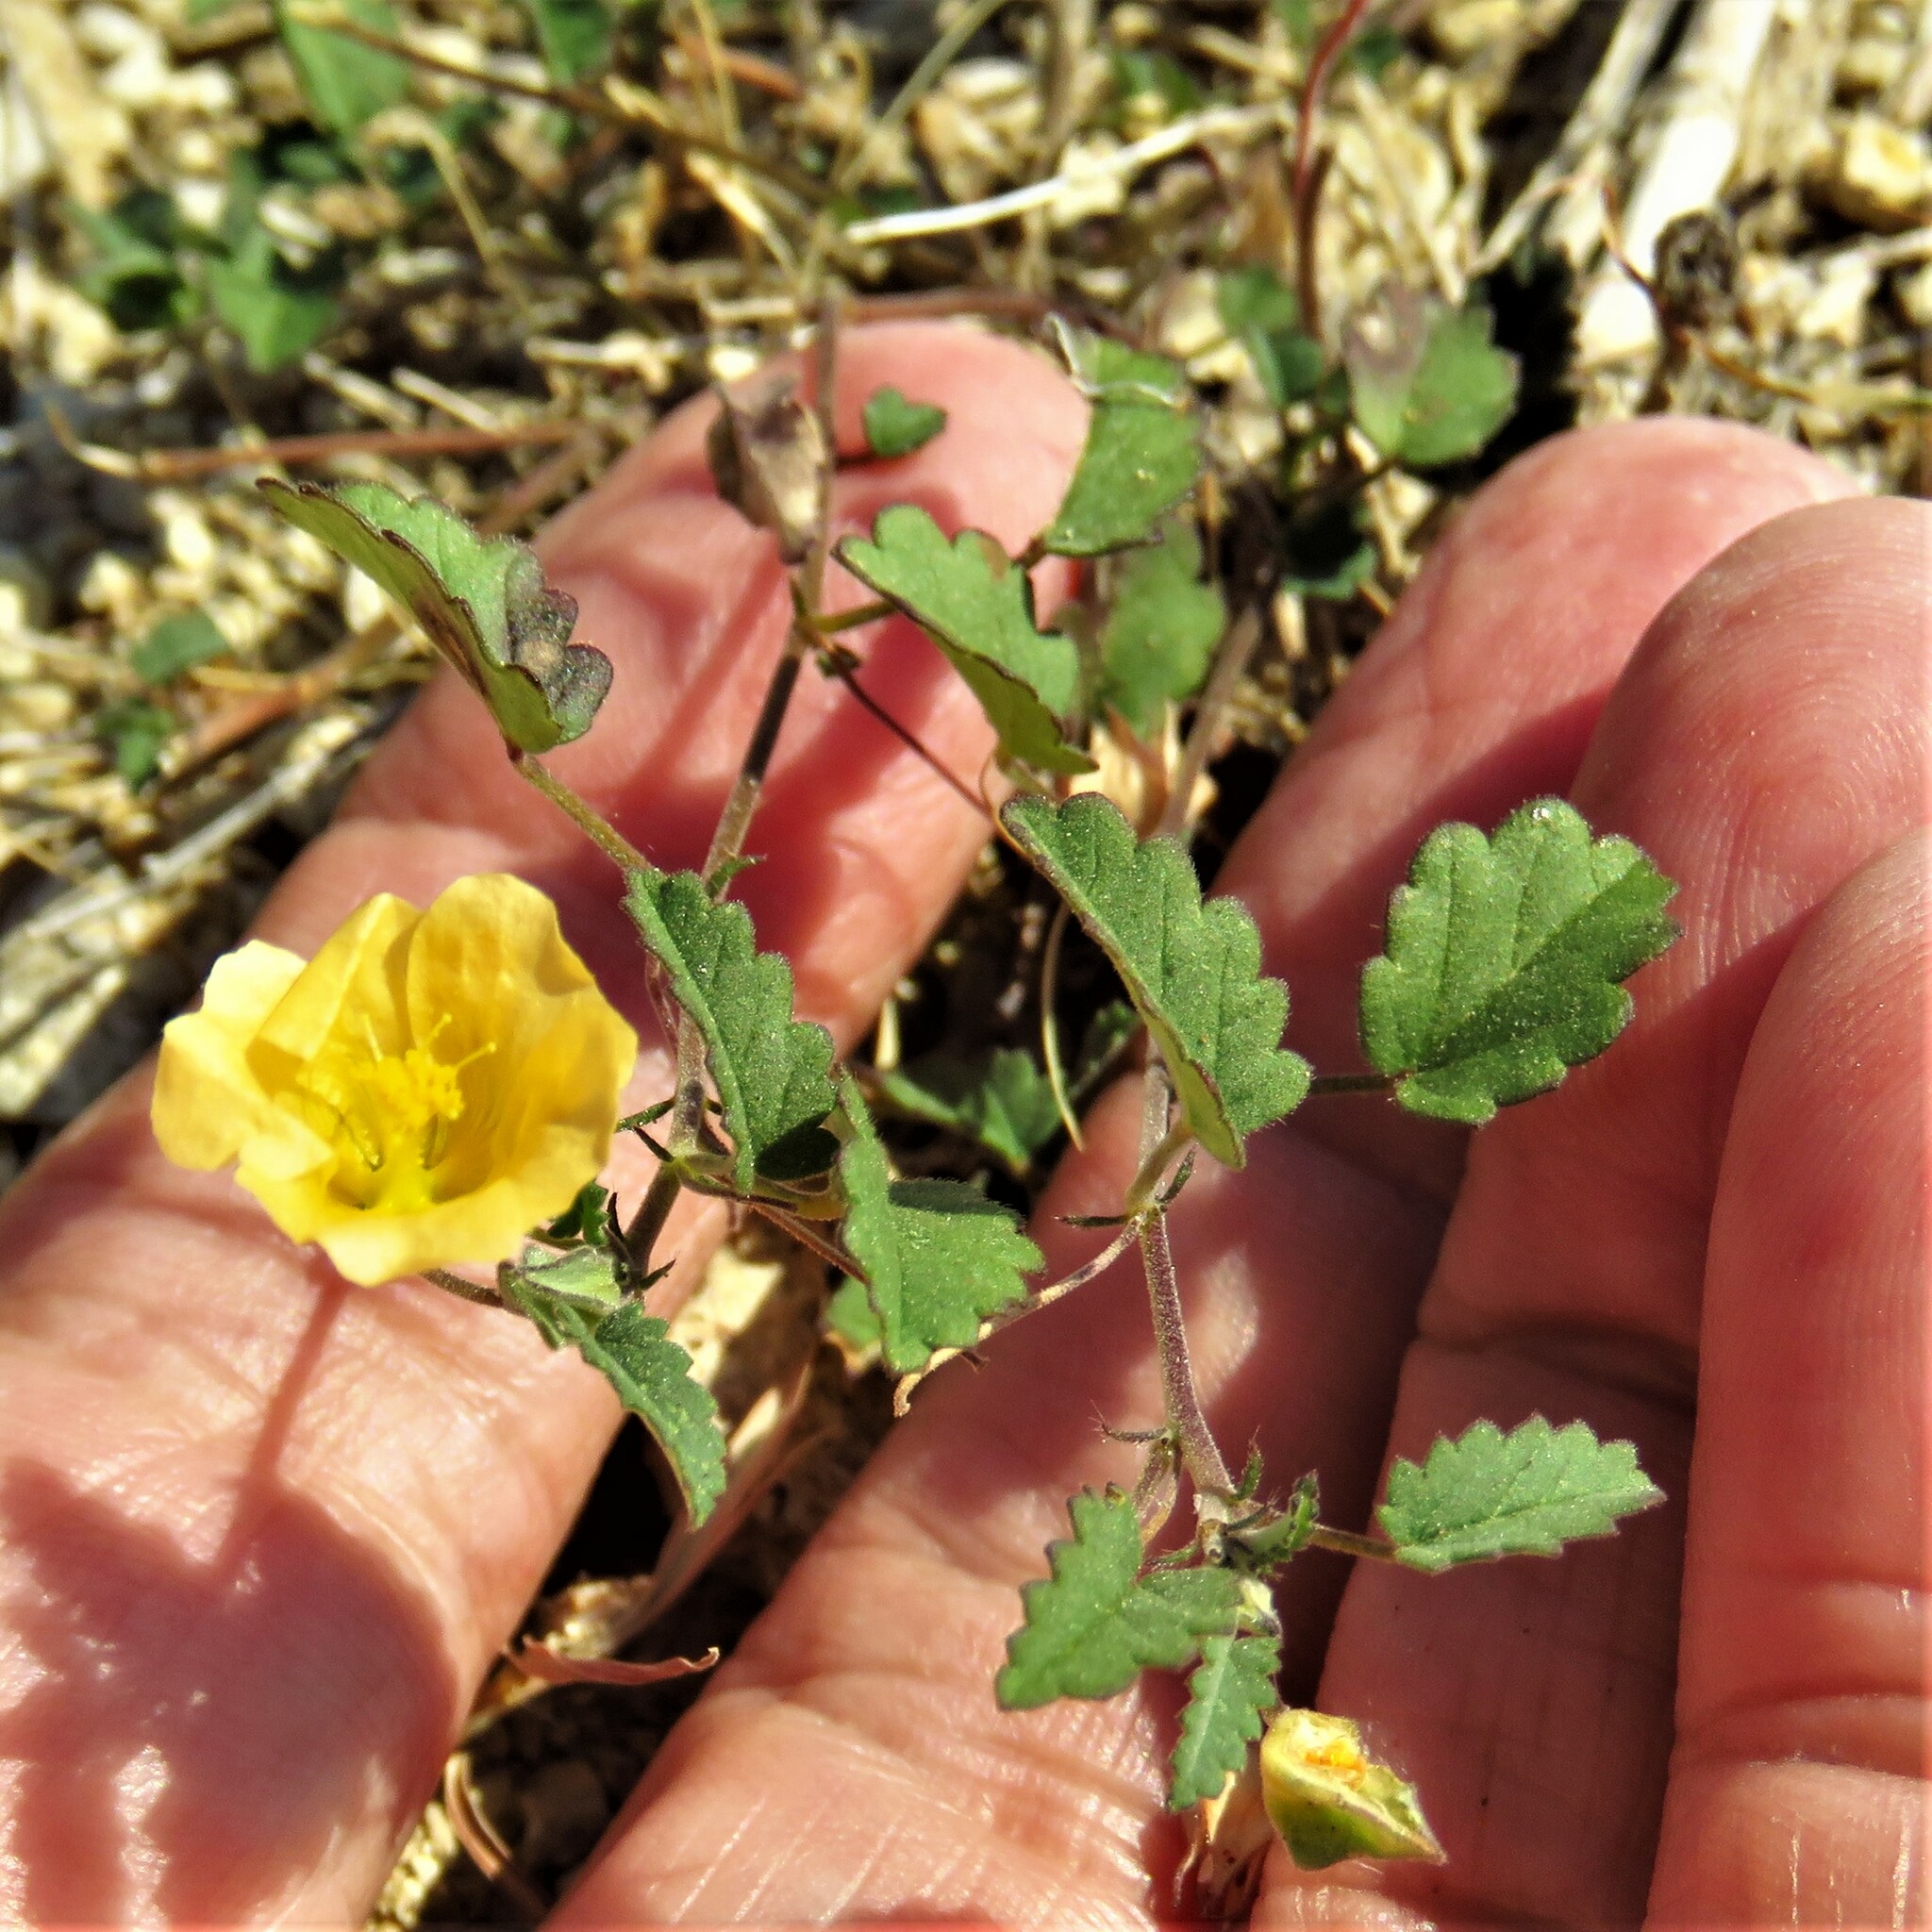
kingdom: Plantae
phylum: Tracheophyta
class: Magnoliopsida
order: Malvales
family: Malvaceae
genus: Sida
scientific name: Sida abutilifolia
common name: Spreading fanpetals
